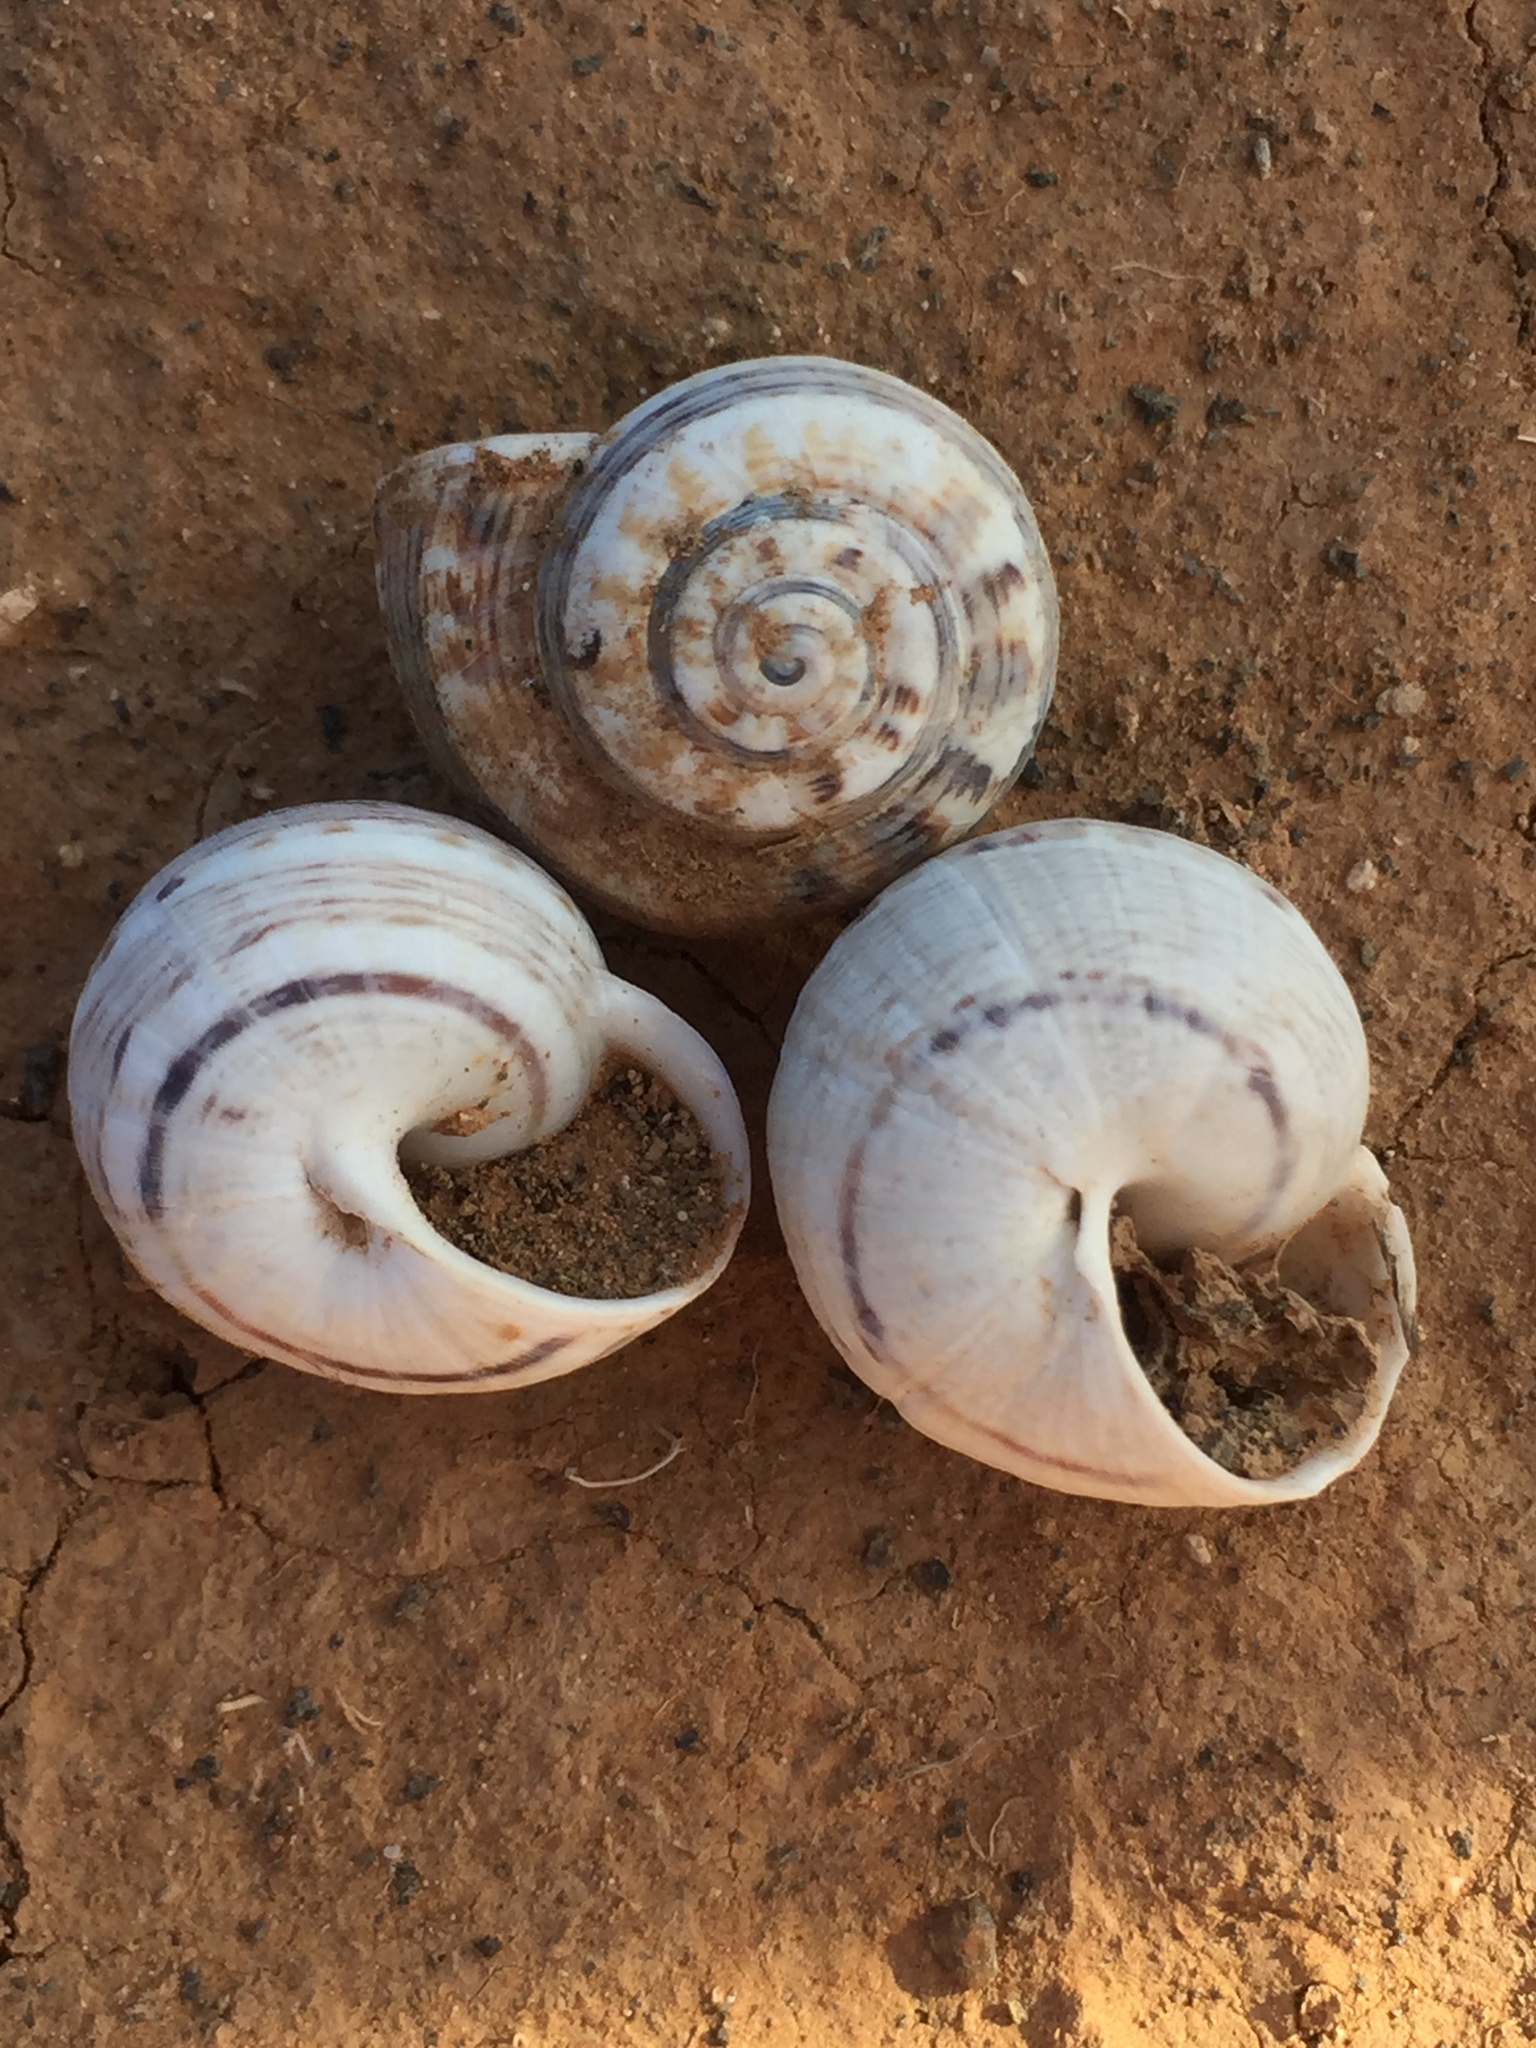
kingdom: Animalia
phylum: Mollusca
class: Gastropoda
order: Stylommatophora
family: Helicidae
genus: Theba
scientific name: Theba geminata
